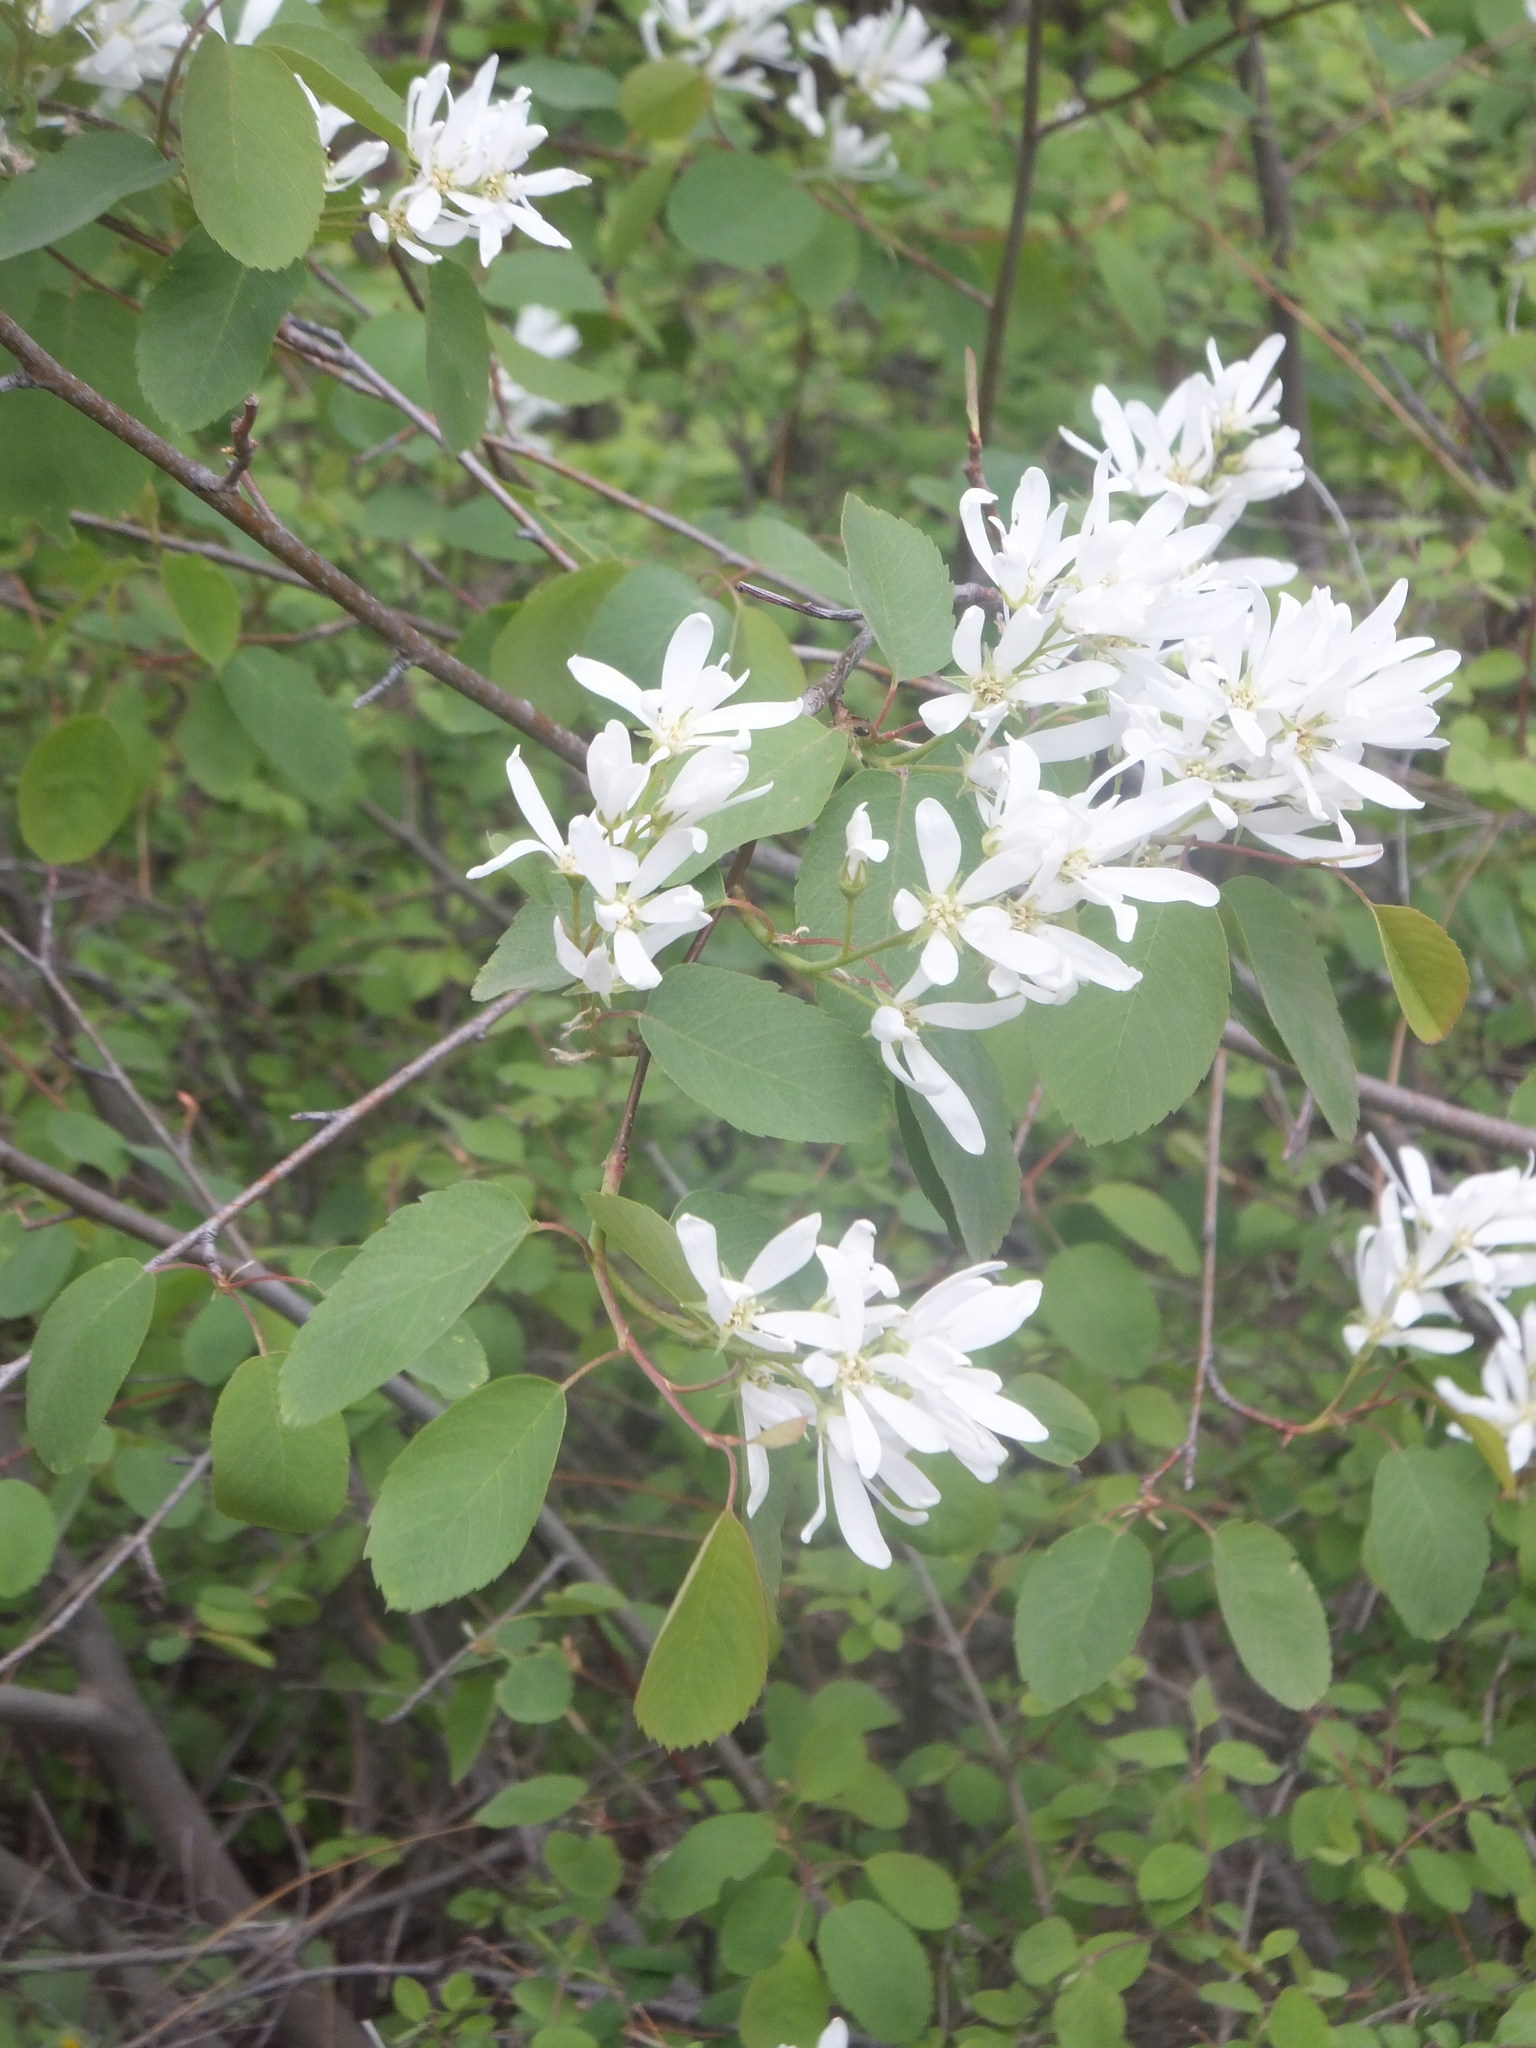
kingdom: Plantae
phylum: Tracheophyta
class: Magnoliopsida
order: Rosales
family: Rosaceae
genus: Amelanchier
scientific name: Amelanchier alnifolia
